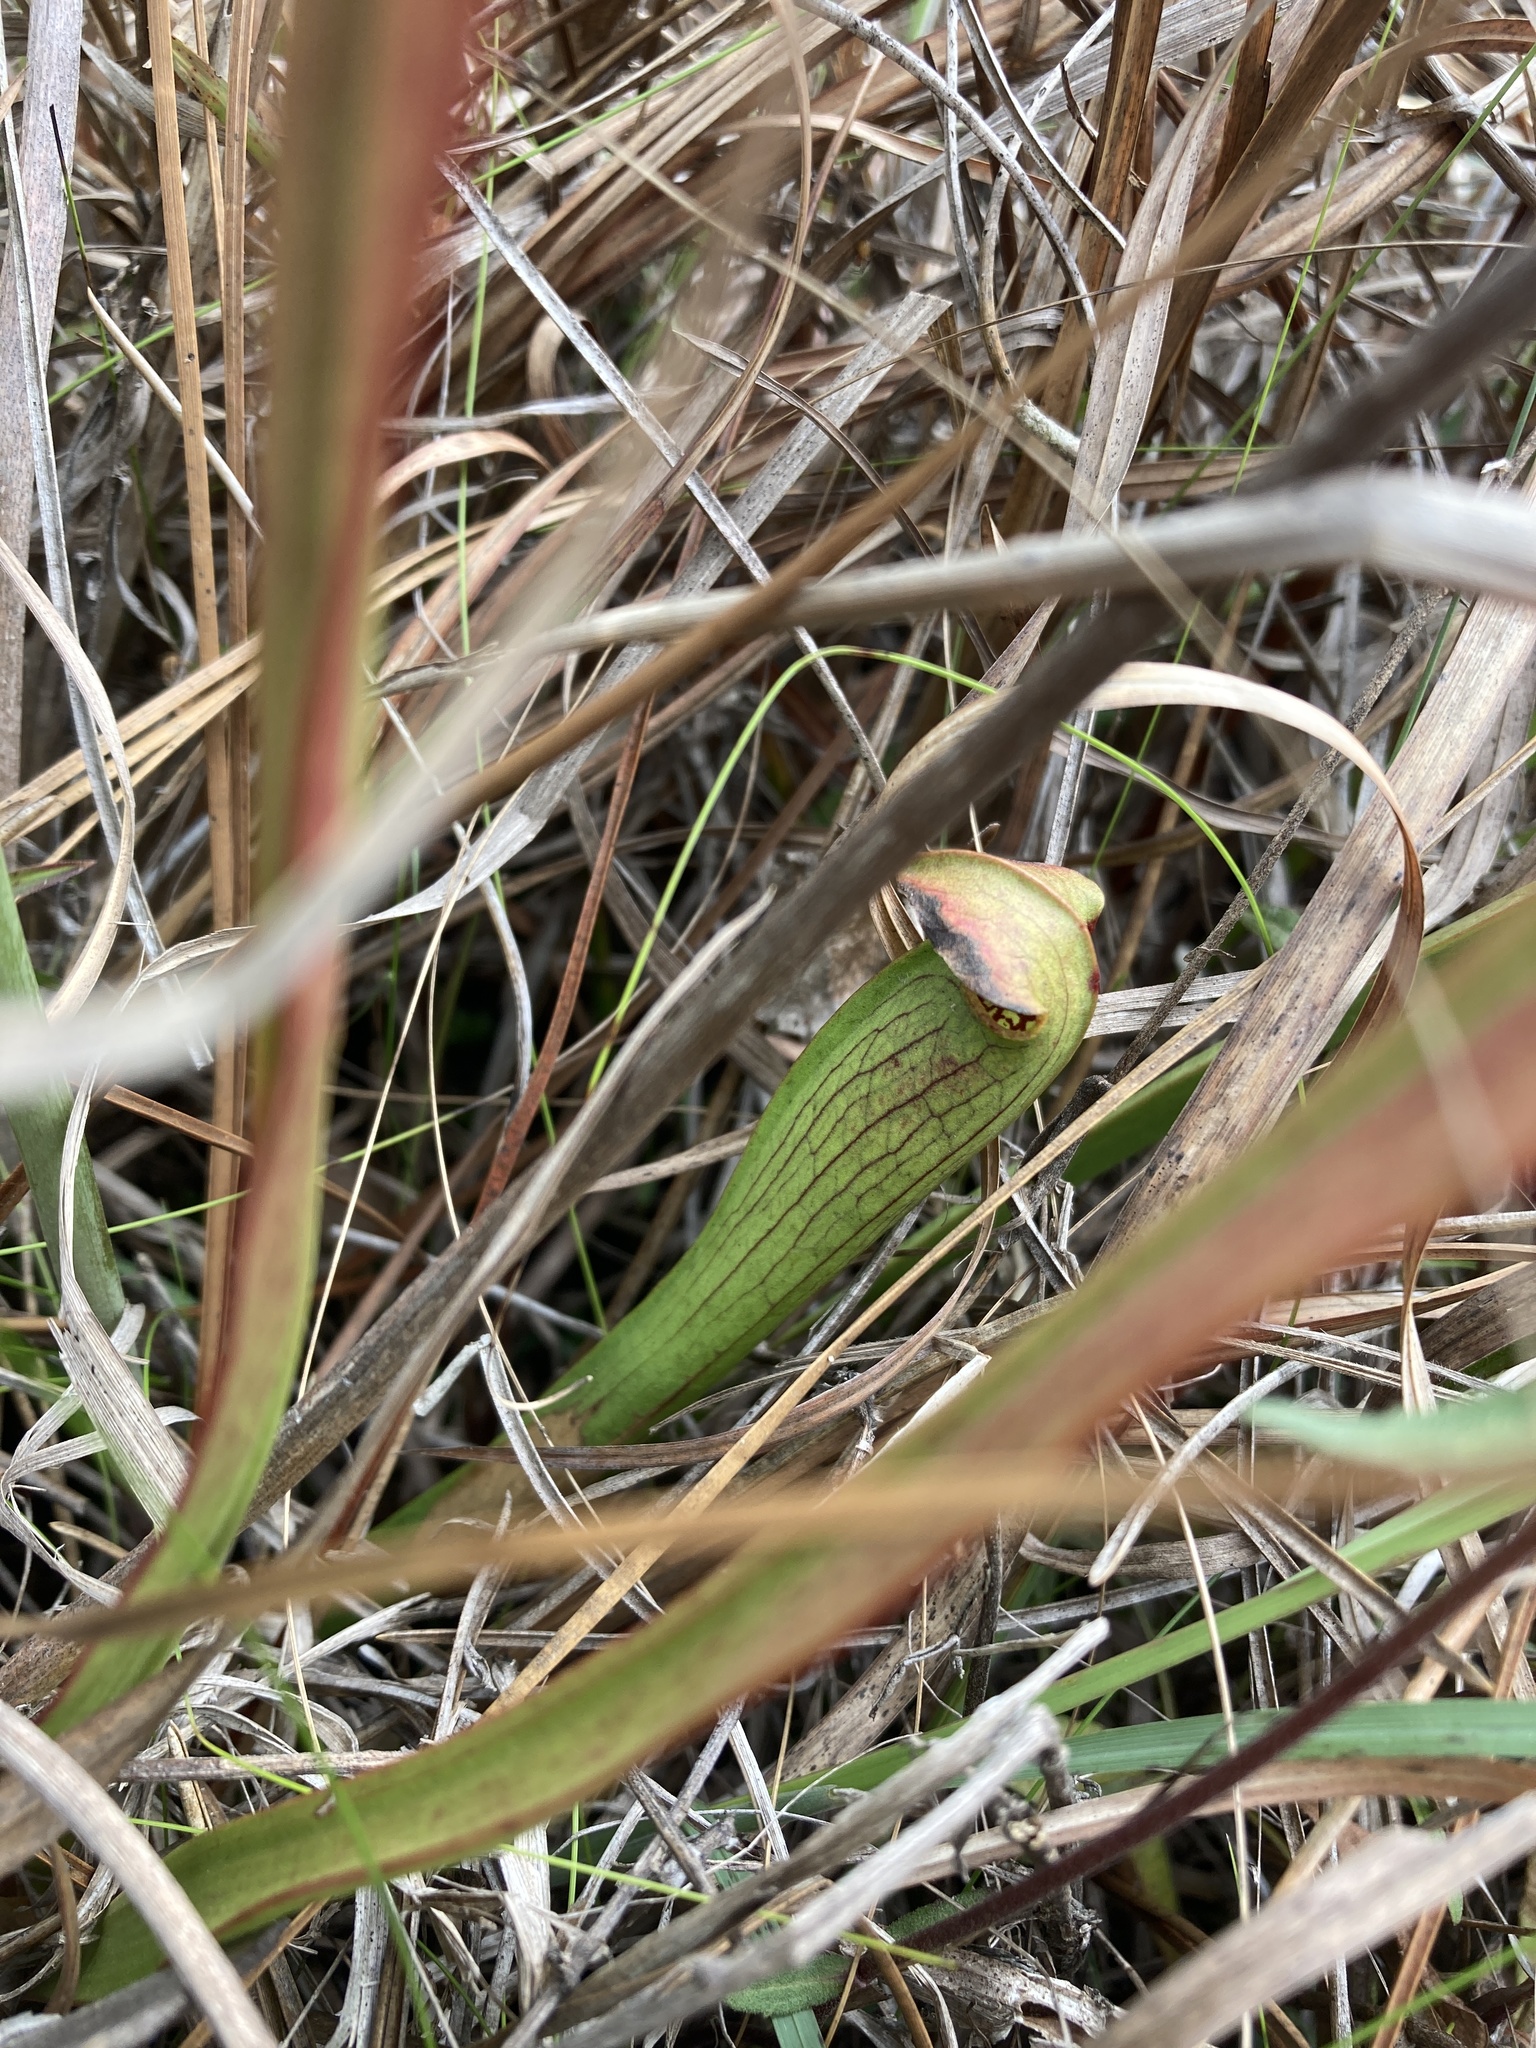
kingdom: Plantae
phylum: Tracheophyta
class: Magnoliopsida
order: Ericales
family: Sarraceniaceae
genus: Sarracenia
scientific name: Sarracenia alata
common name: Yellow trumpets
